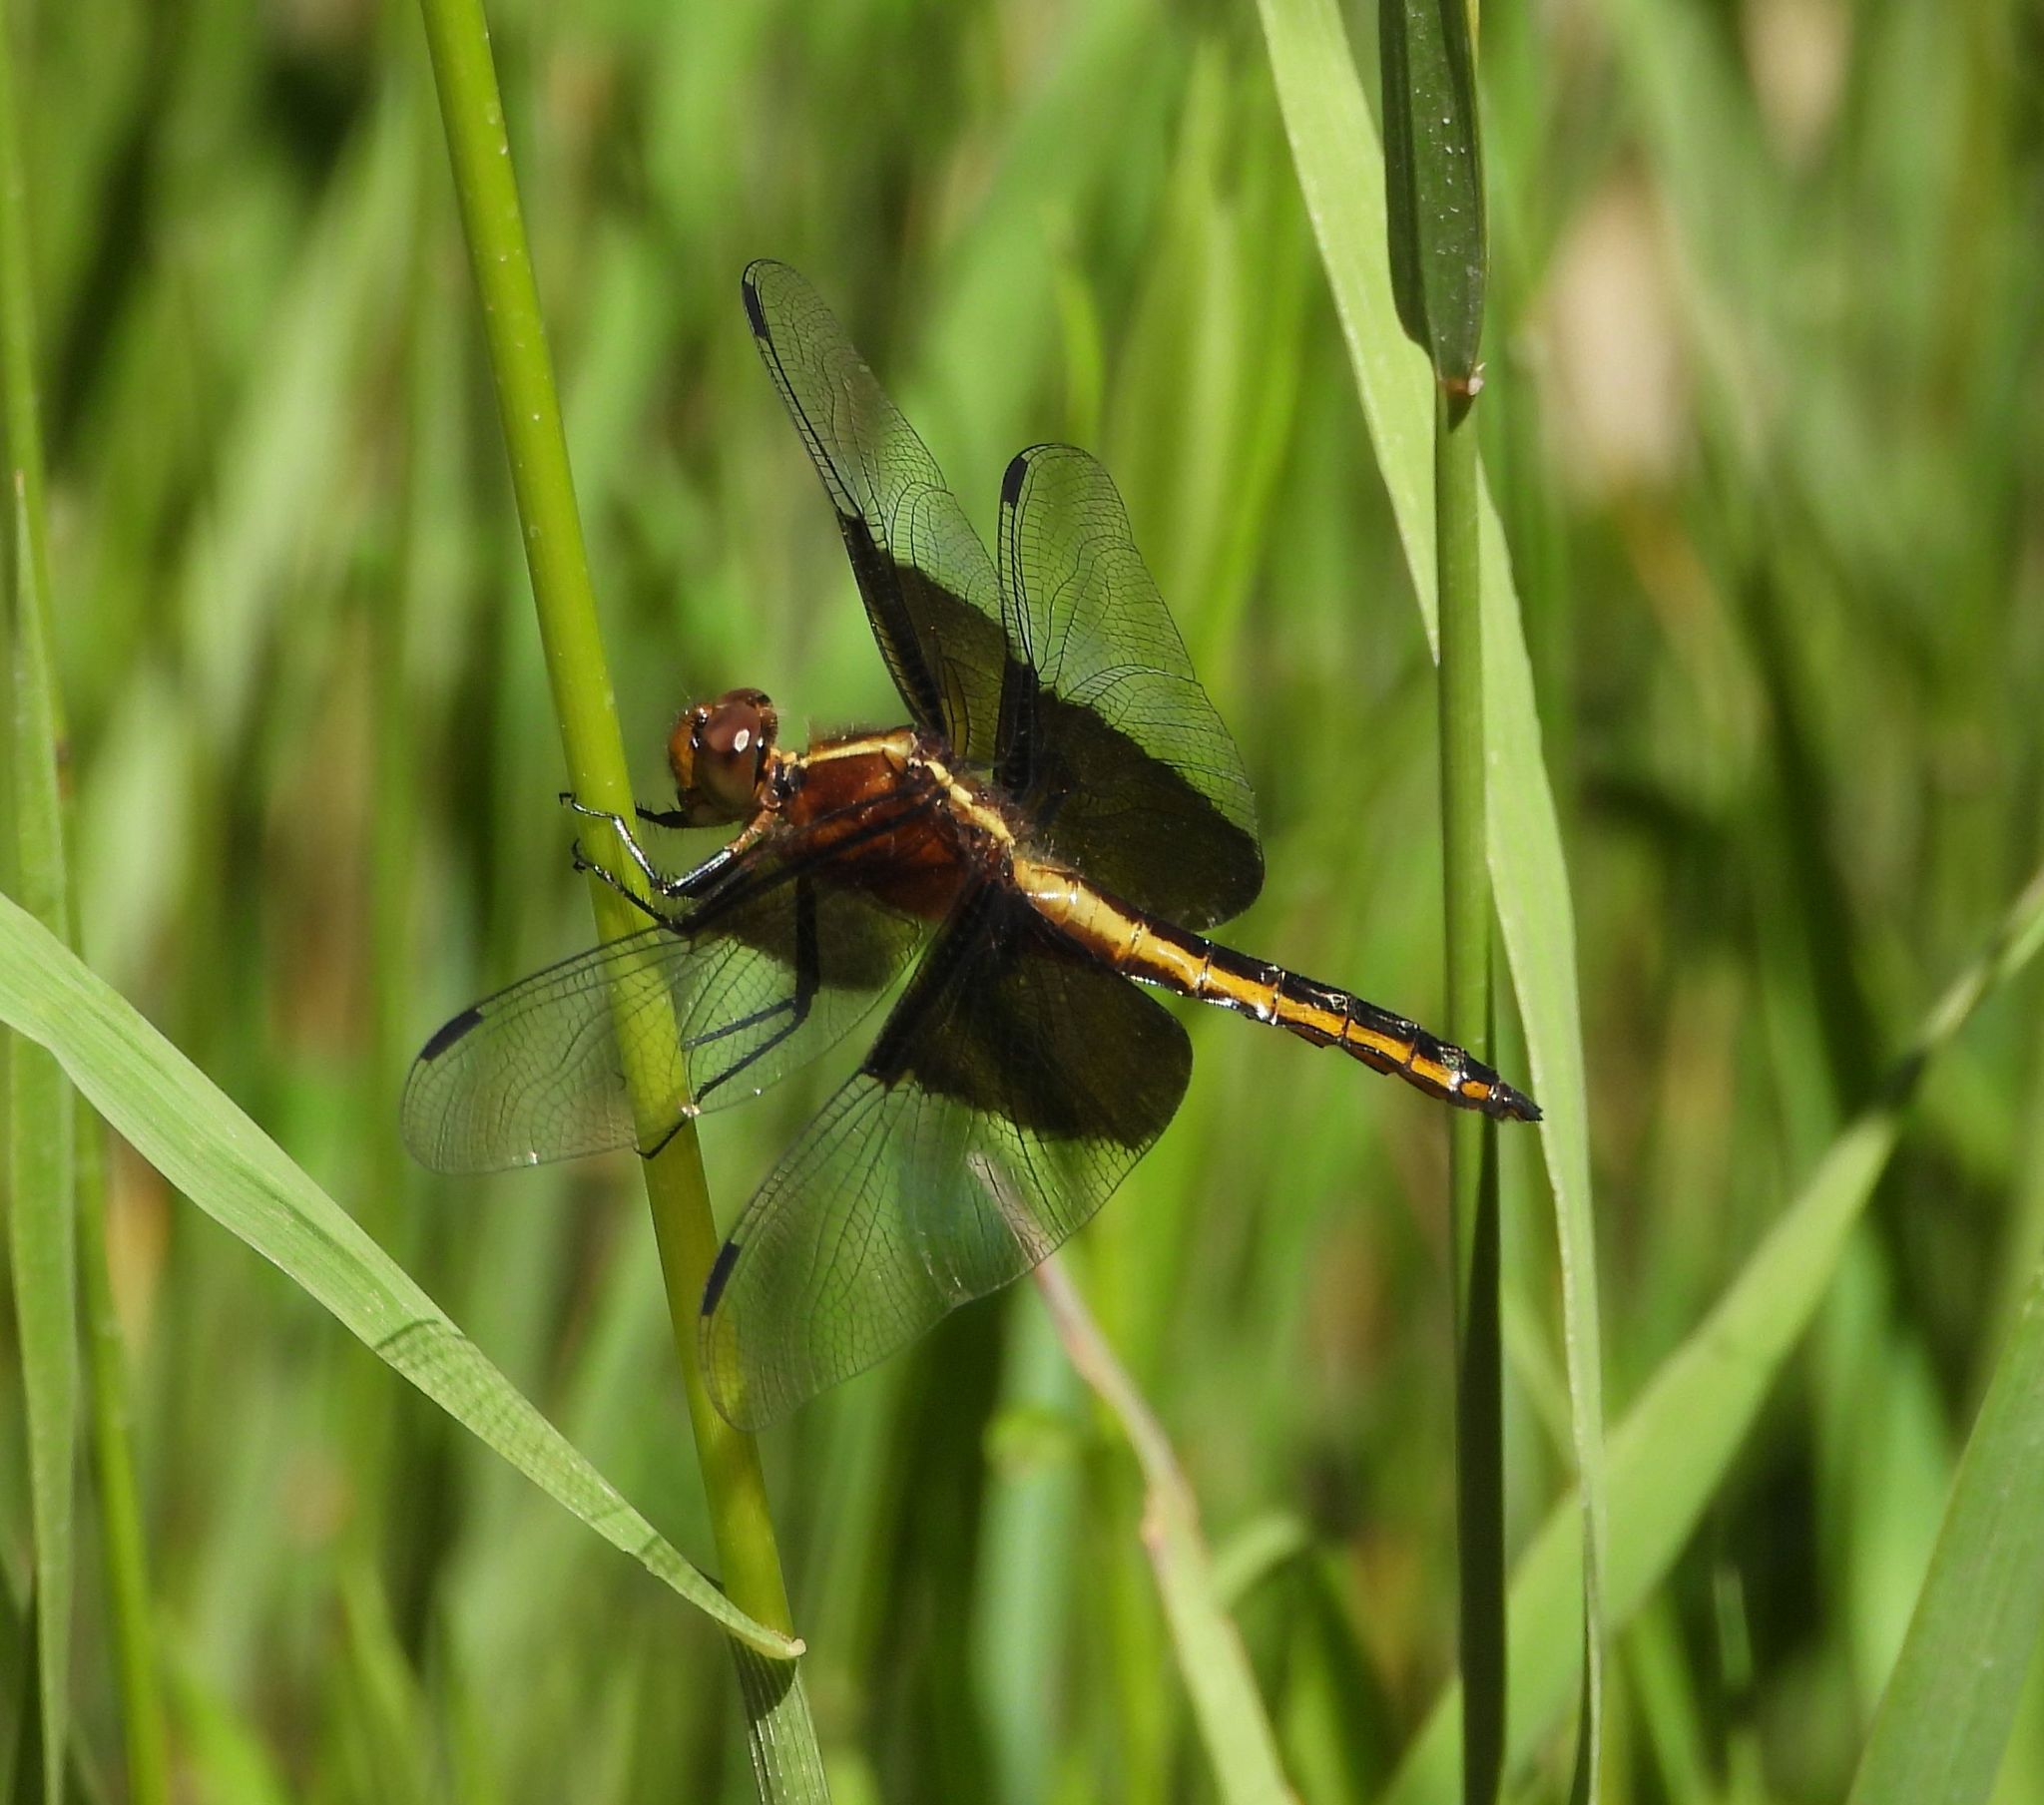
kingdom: Animalia
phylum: Arthropoda
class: Insecta
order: Odonata
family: Libellulidae
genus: Libellula
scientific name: Libellula luctuosa
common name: Widow skimmer
